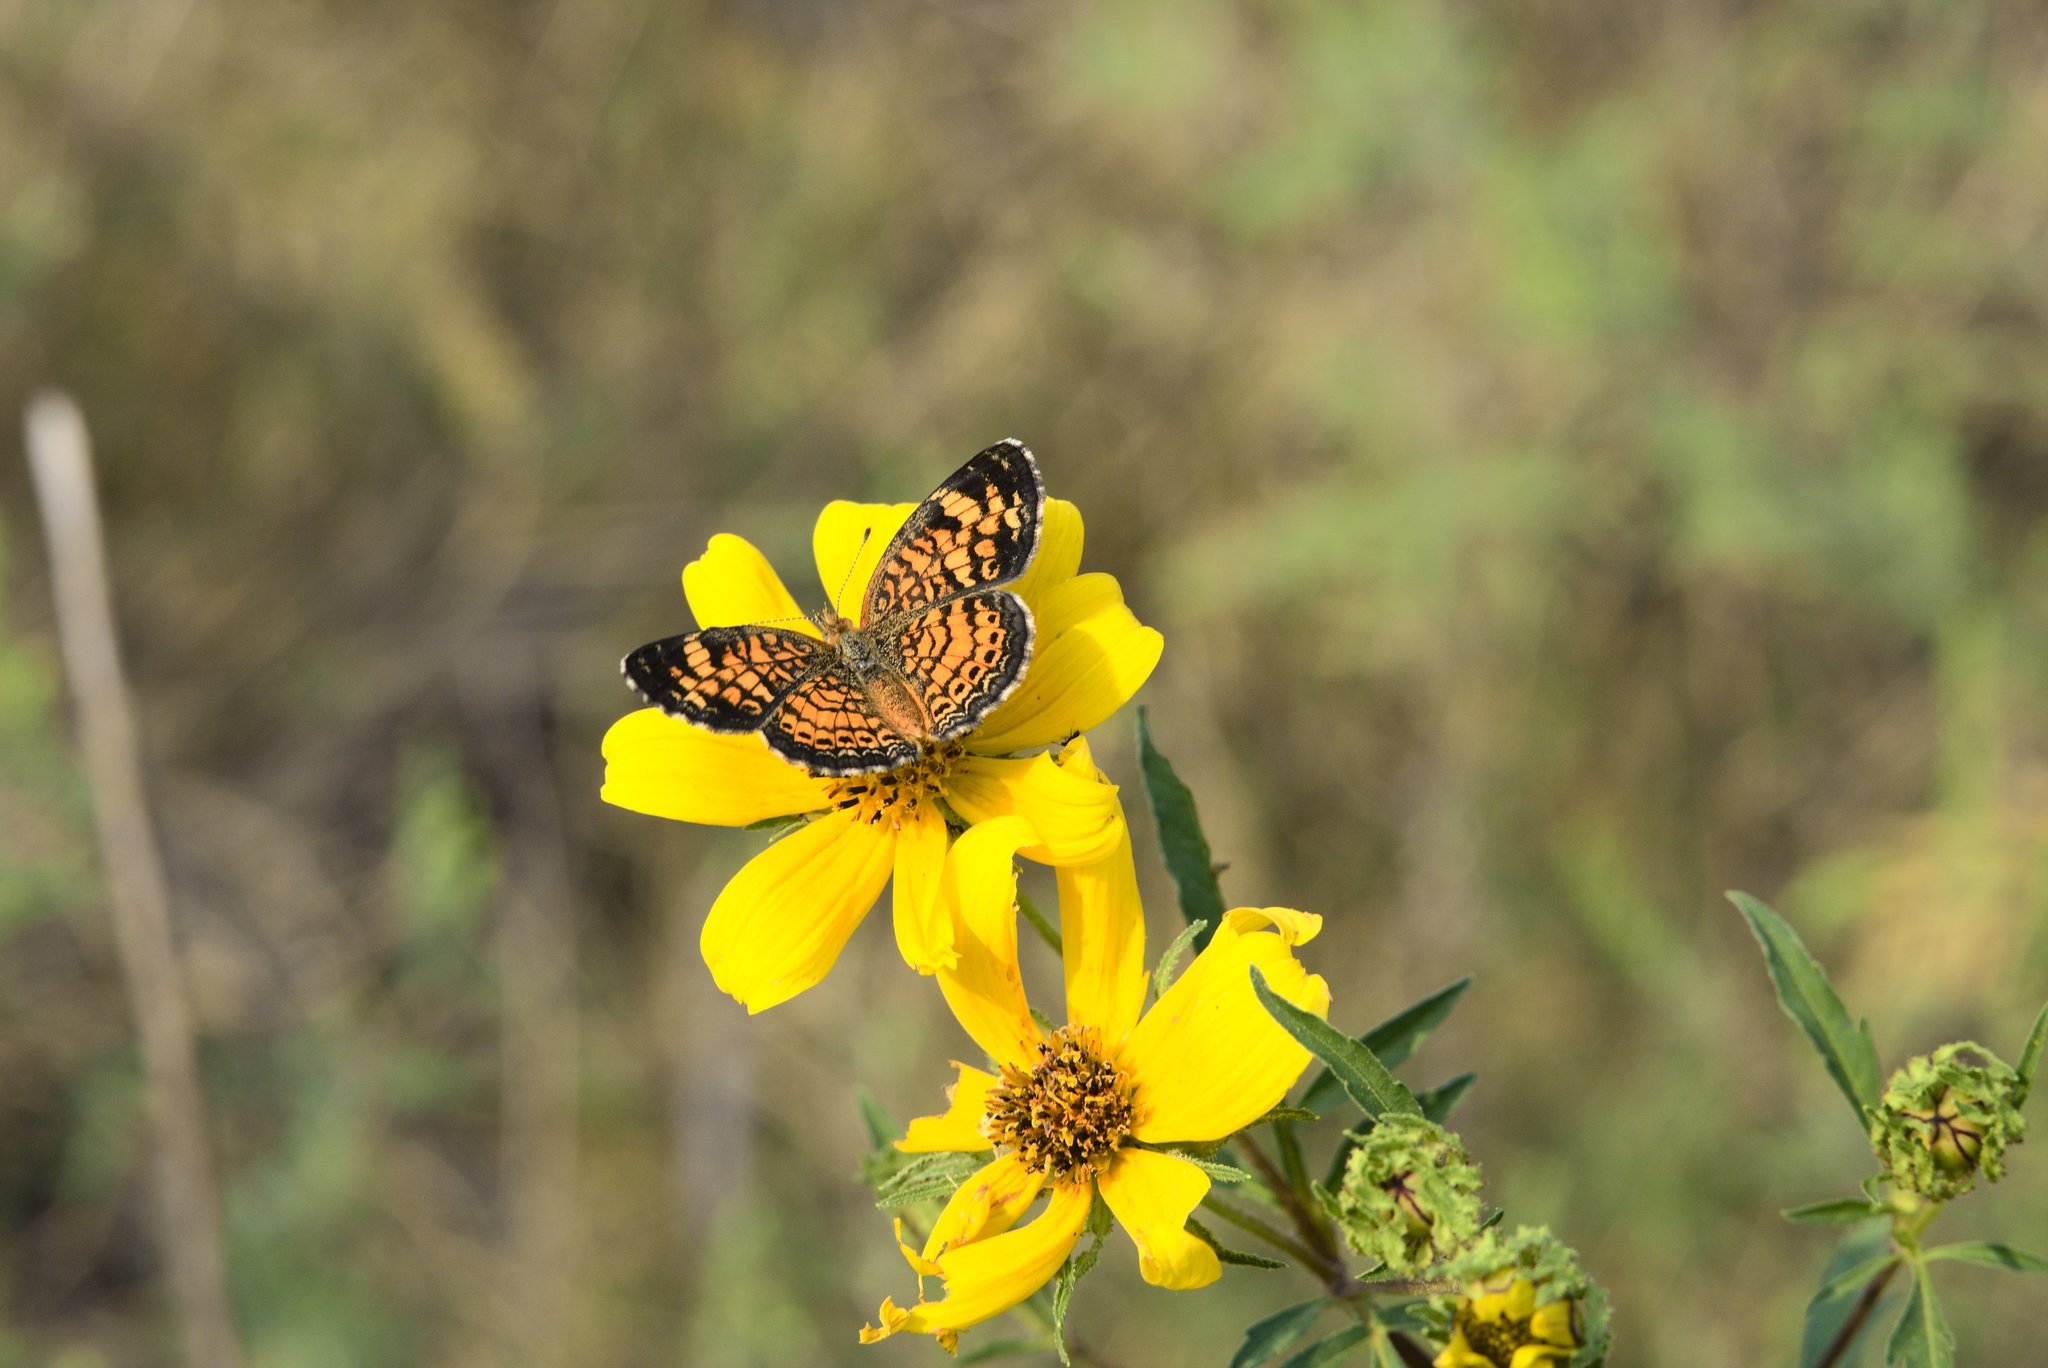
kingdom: Animalia
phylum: Arthropoda
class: Insecta
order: Lepidoptera
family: Nymphalidae
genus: Phyciodes
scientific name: Phyciodes tharos
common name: Pearl crescent
